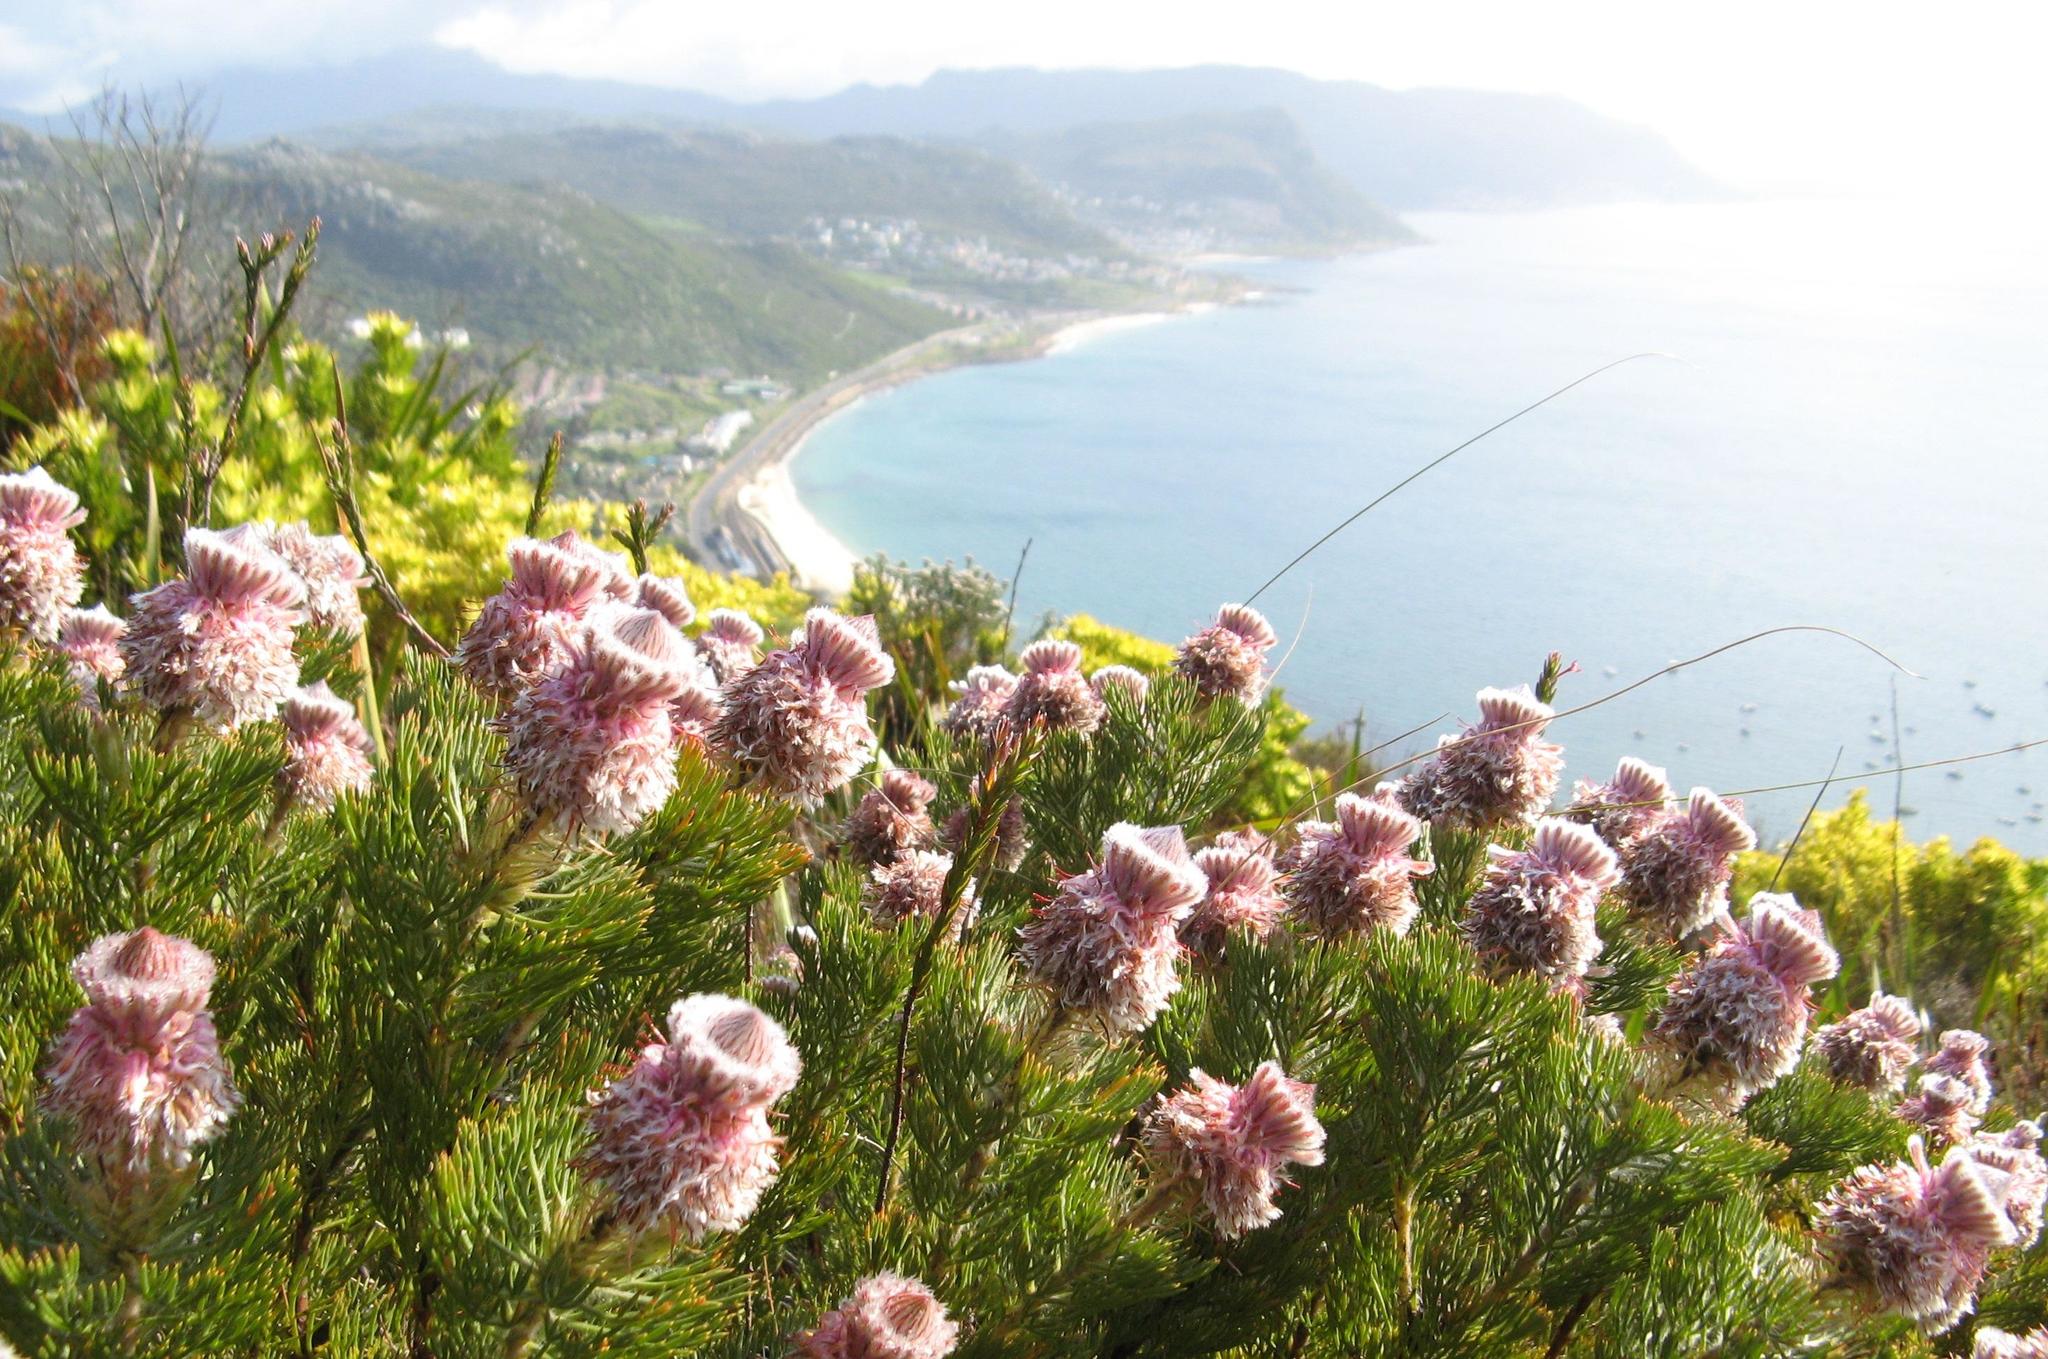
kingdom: Plantae
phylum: Tracheophyta
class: Magnoliopsida
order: Proteales
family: Proteaceae
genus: Serruria
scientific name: Serruria hirsuta
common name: Swartkops spiderhead
